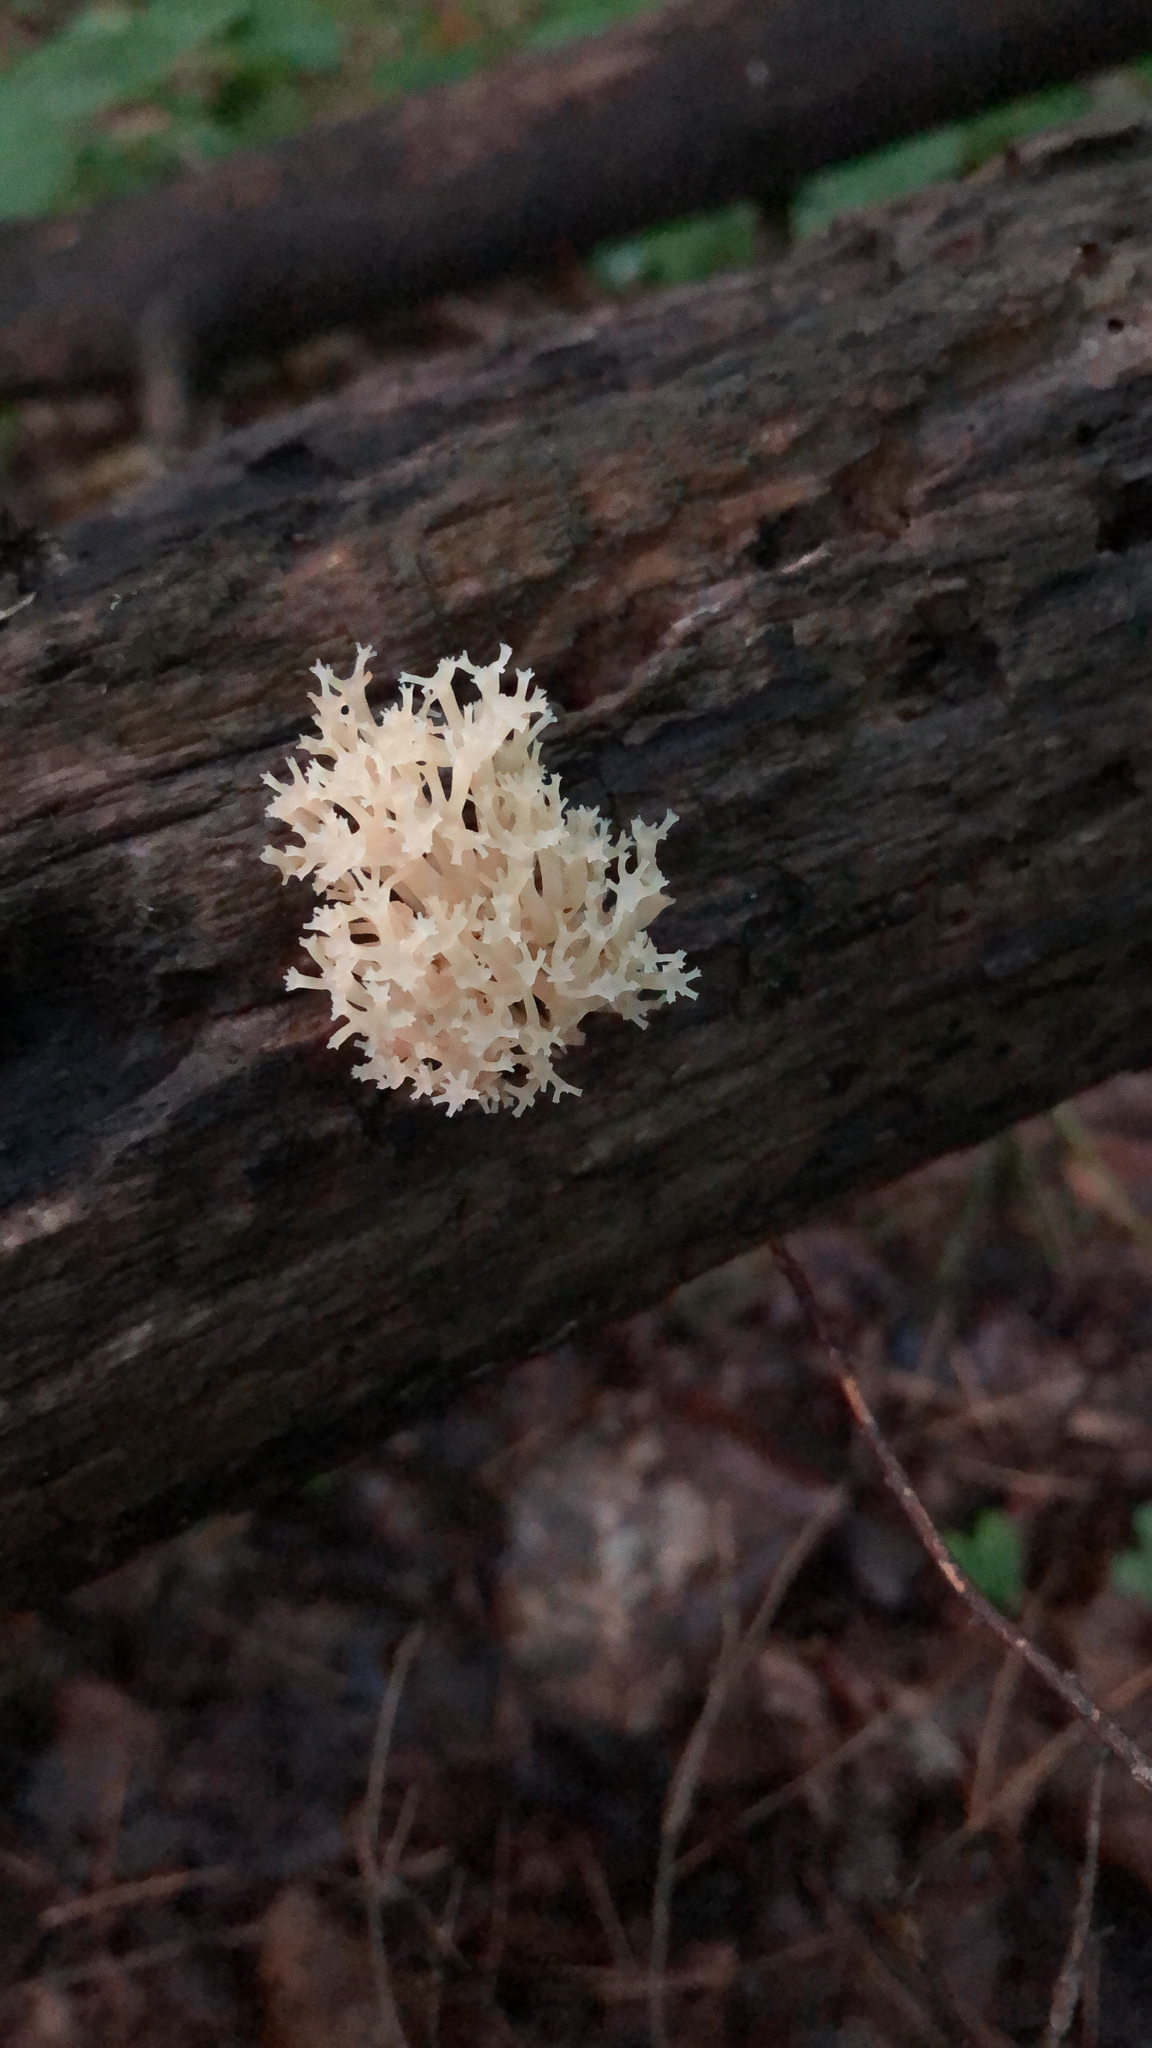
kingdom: Fungi
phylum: Basidiomycota
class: Agaricomycetes
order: Russulales
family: Auriscalpiaceae
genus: Artomyces
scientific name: Artomyces pyxidatus
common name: Crown-tipped coral fungus
